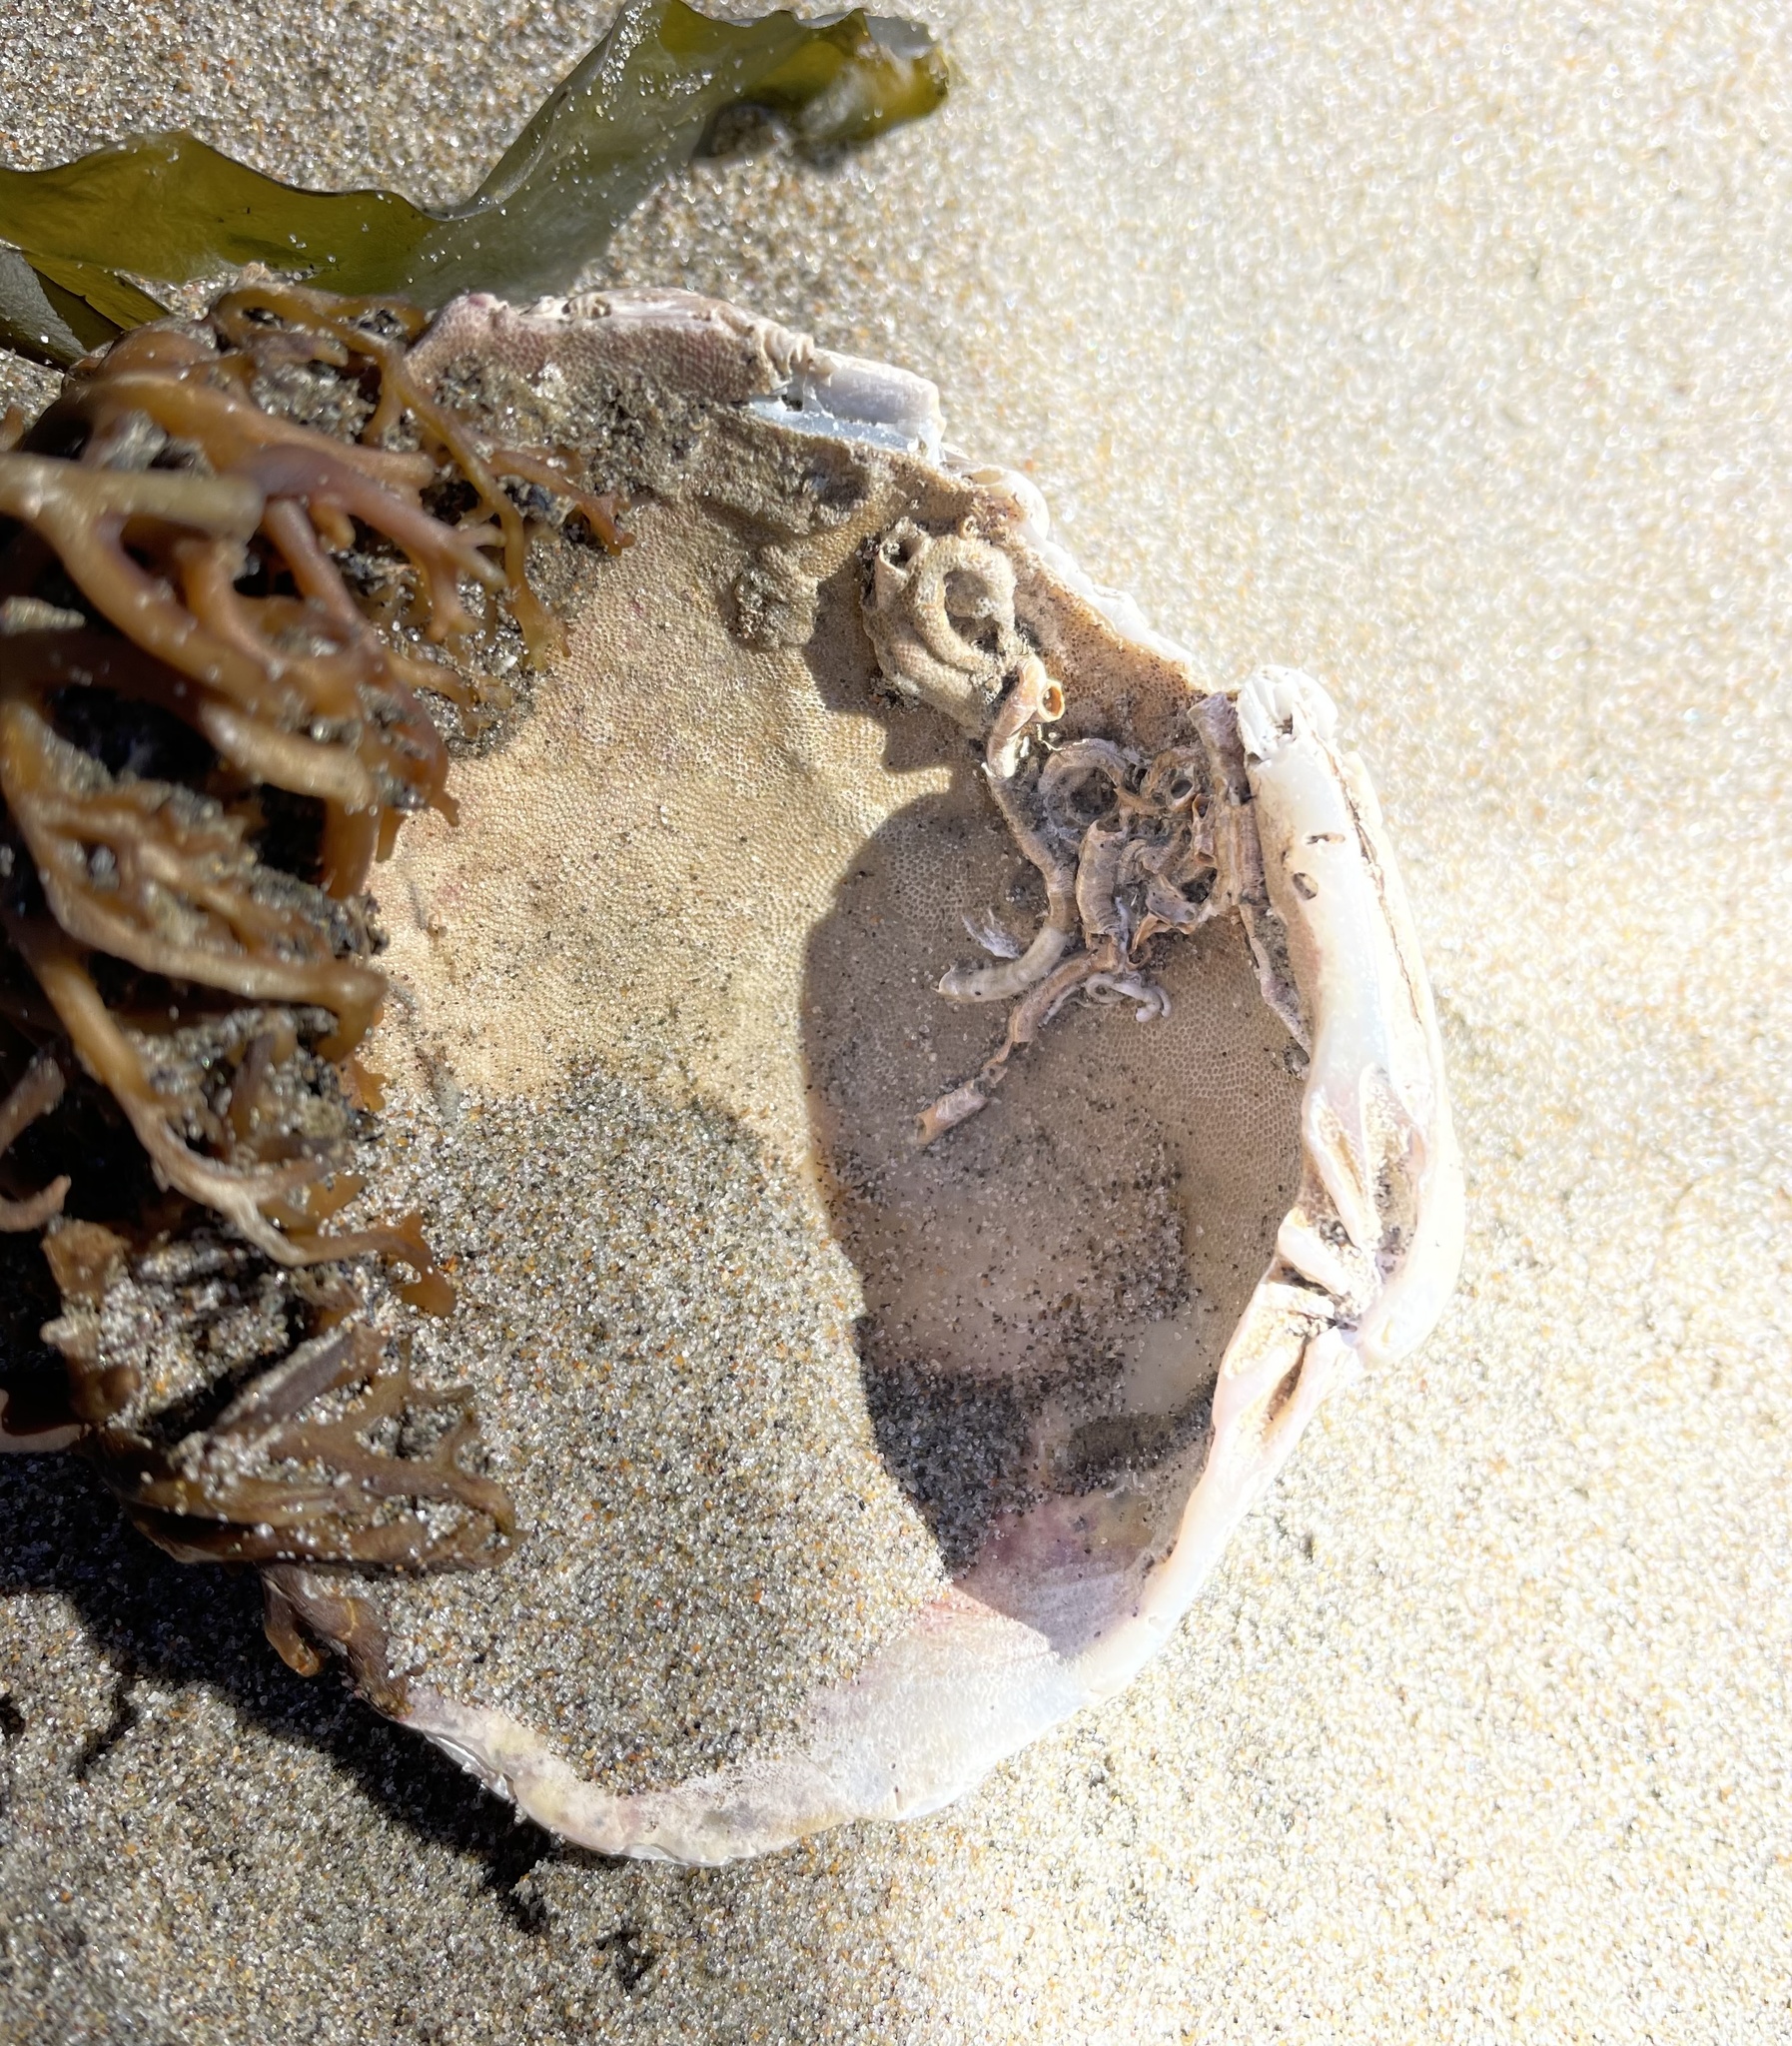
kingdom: Animalia
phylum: Mollusca
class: Gastropoda
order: Littorinimorpha
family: Vermetidae
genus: Thylacodes
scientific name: Thylacodes squamigerus
